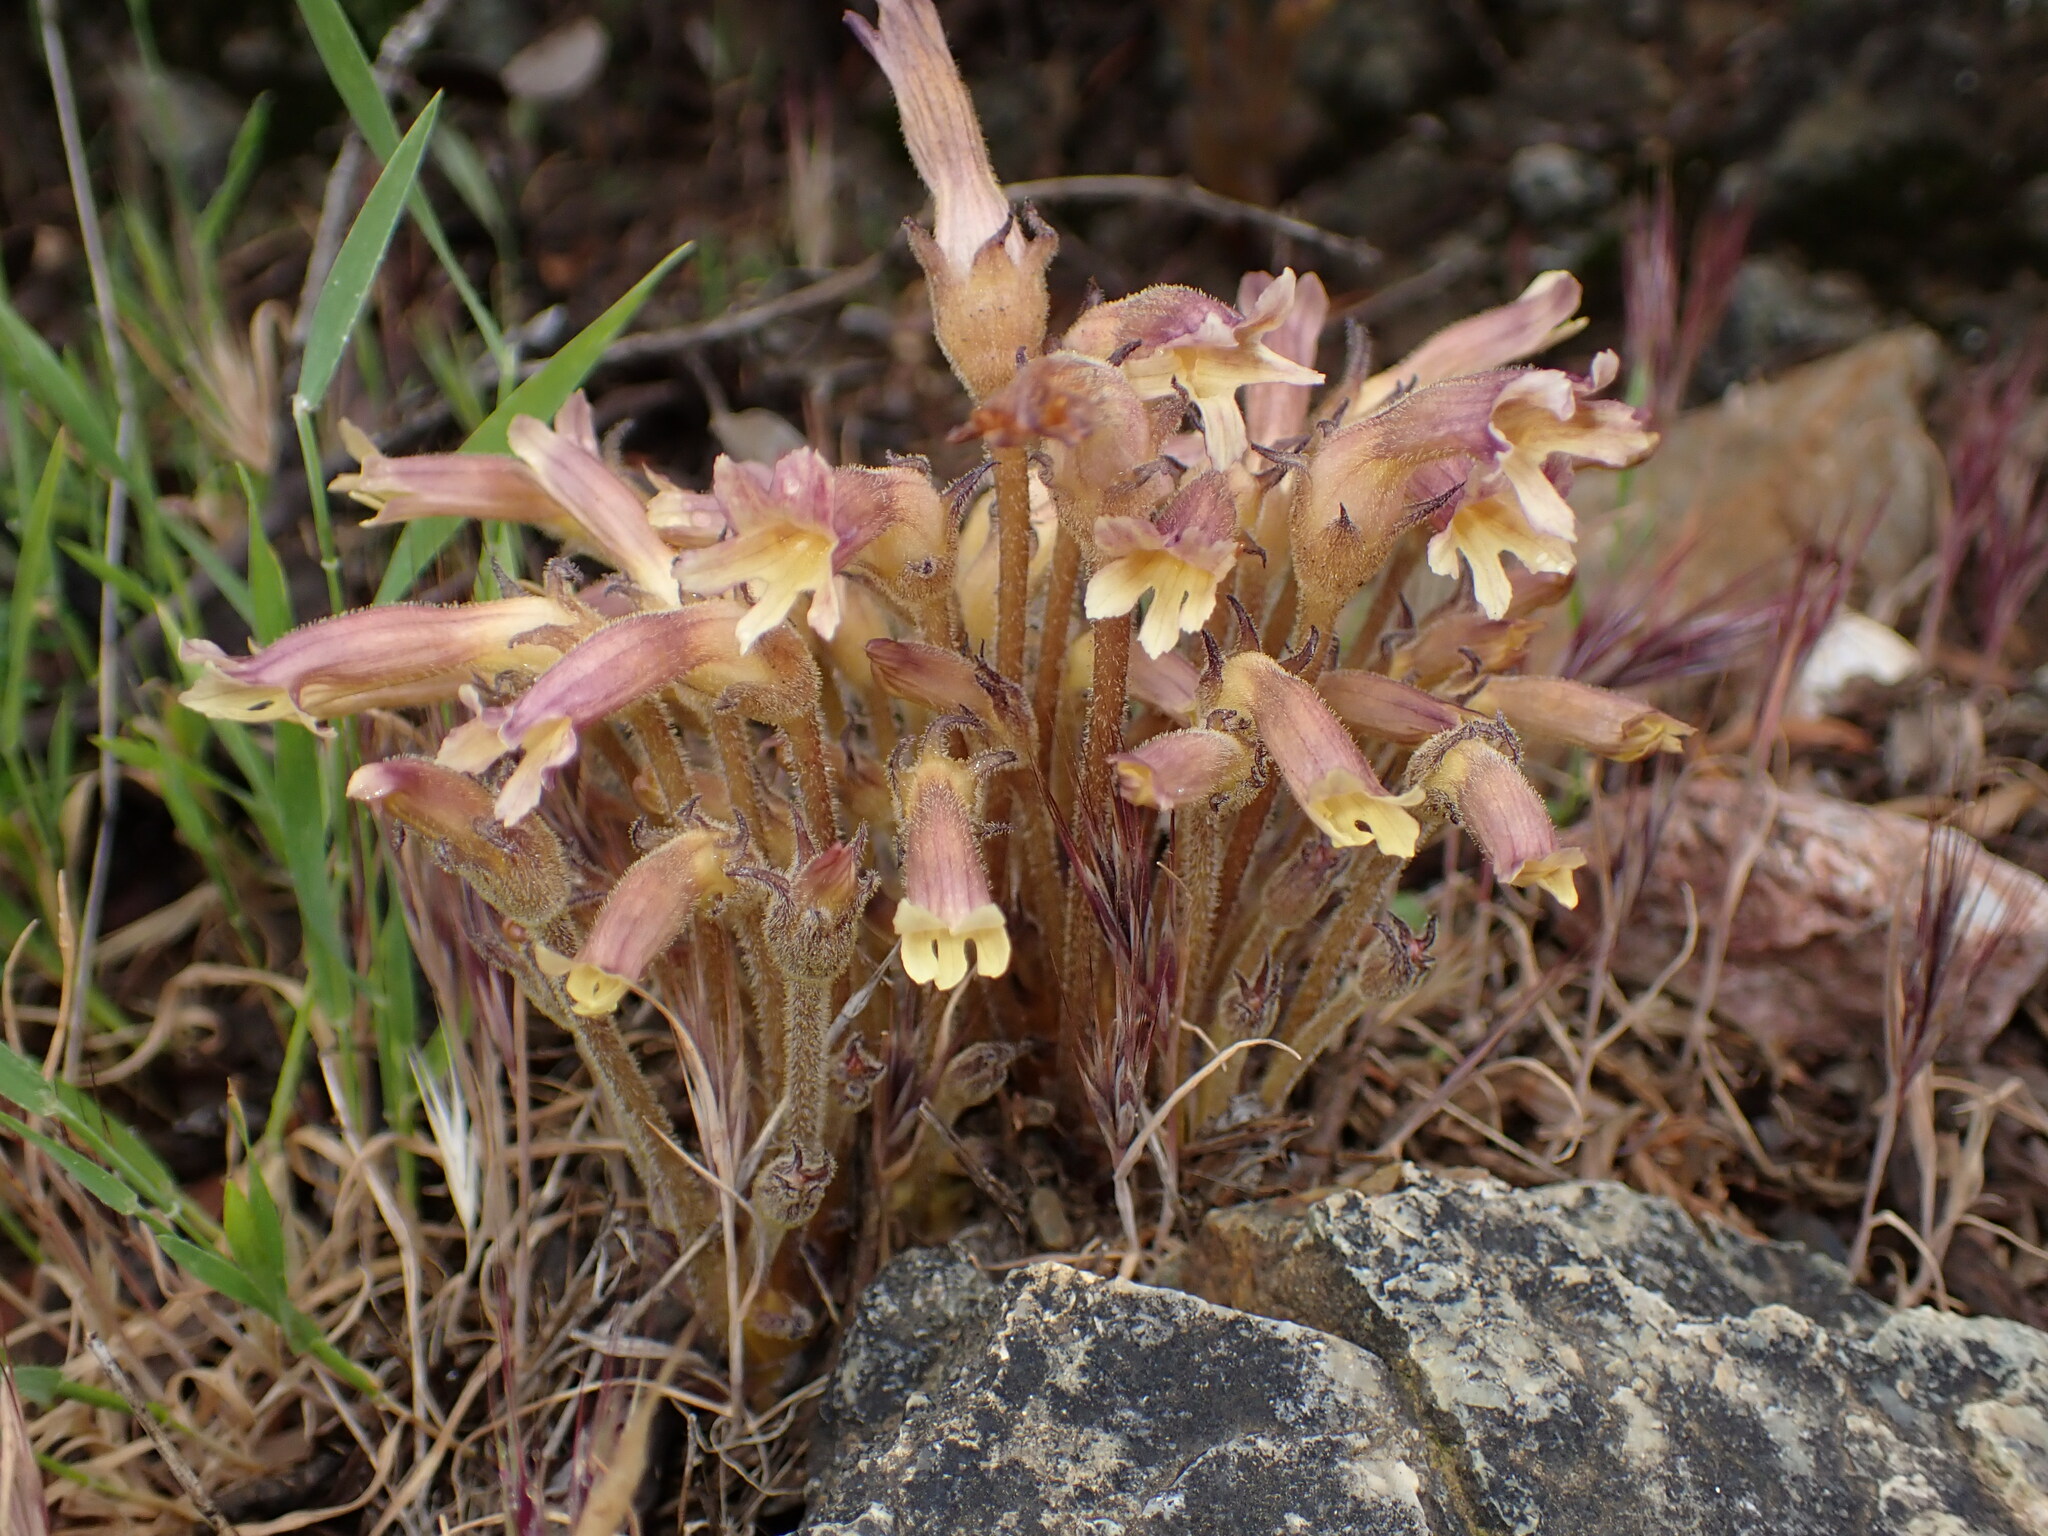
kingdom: Plantae
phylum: Tracheophyta
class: Magnoliopsida
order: Lamiales
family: Orobanchaceae
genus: Aphyllon
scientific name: Aphyllon franciscanum
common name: San francisco broomrape
